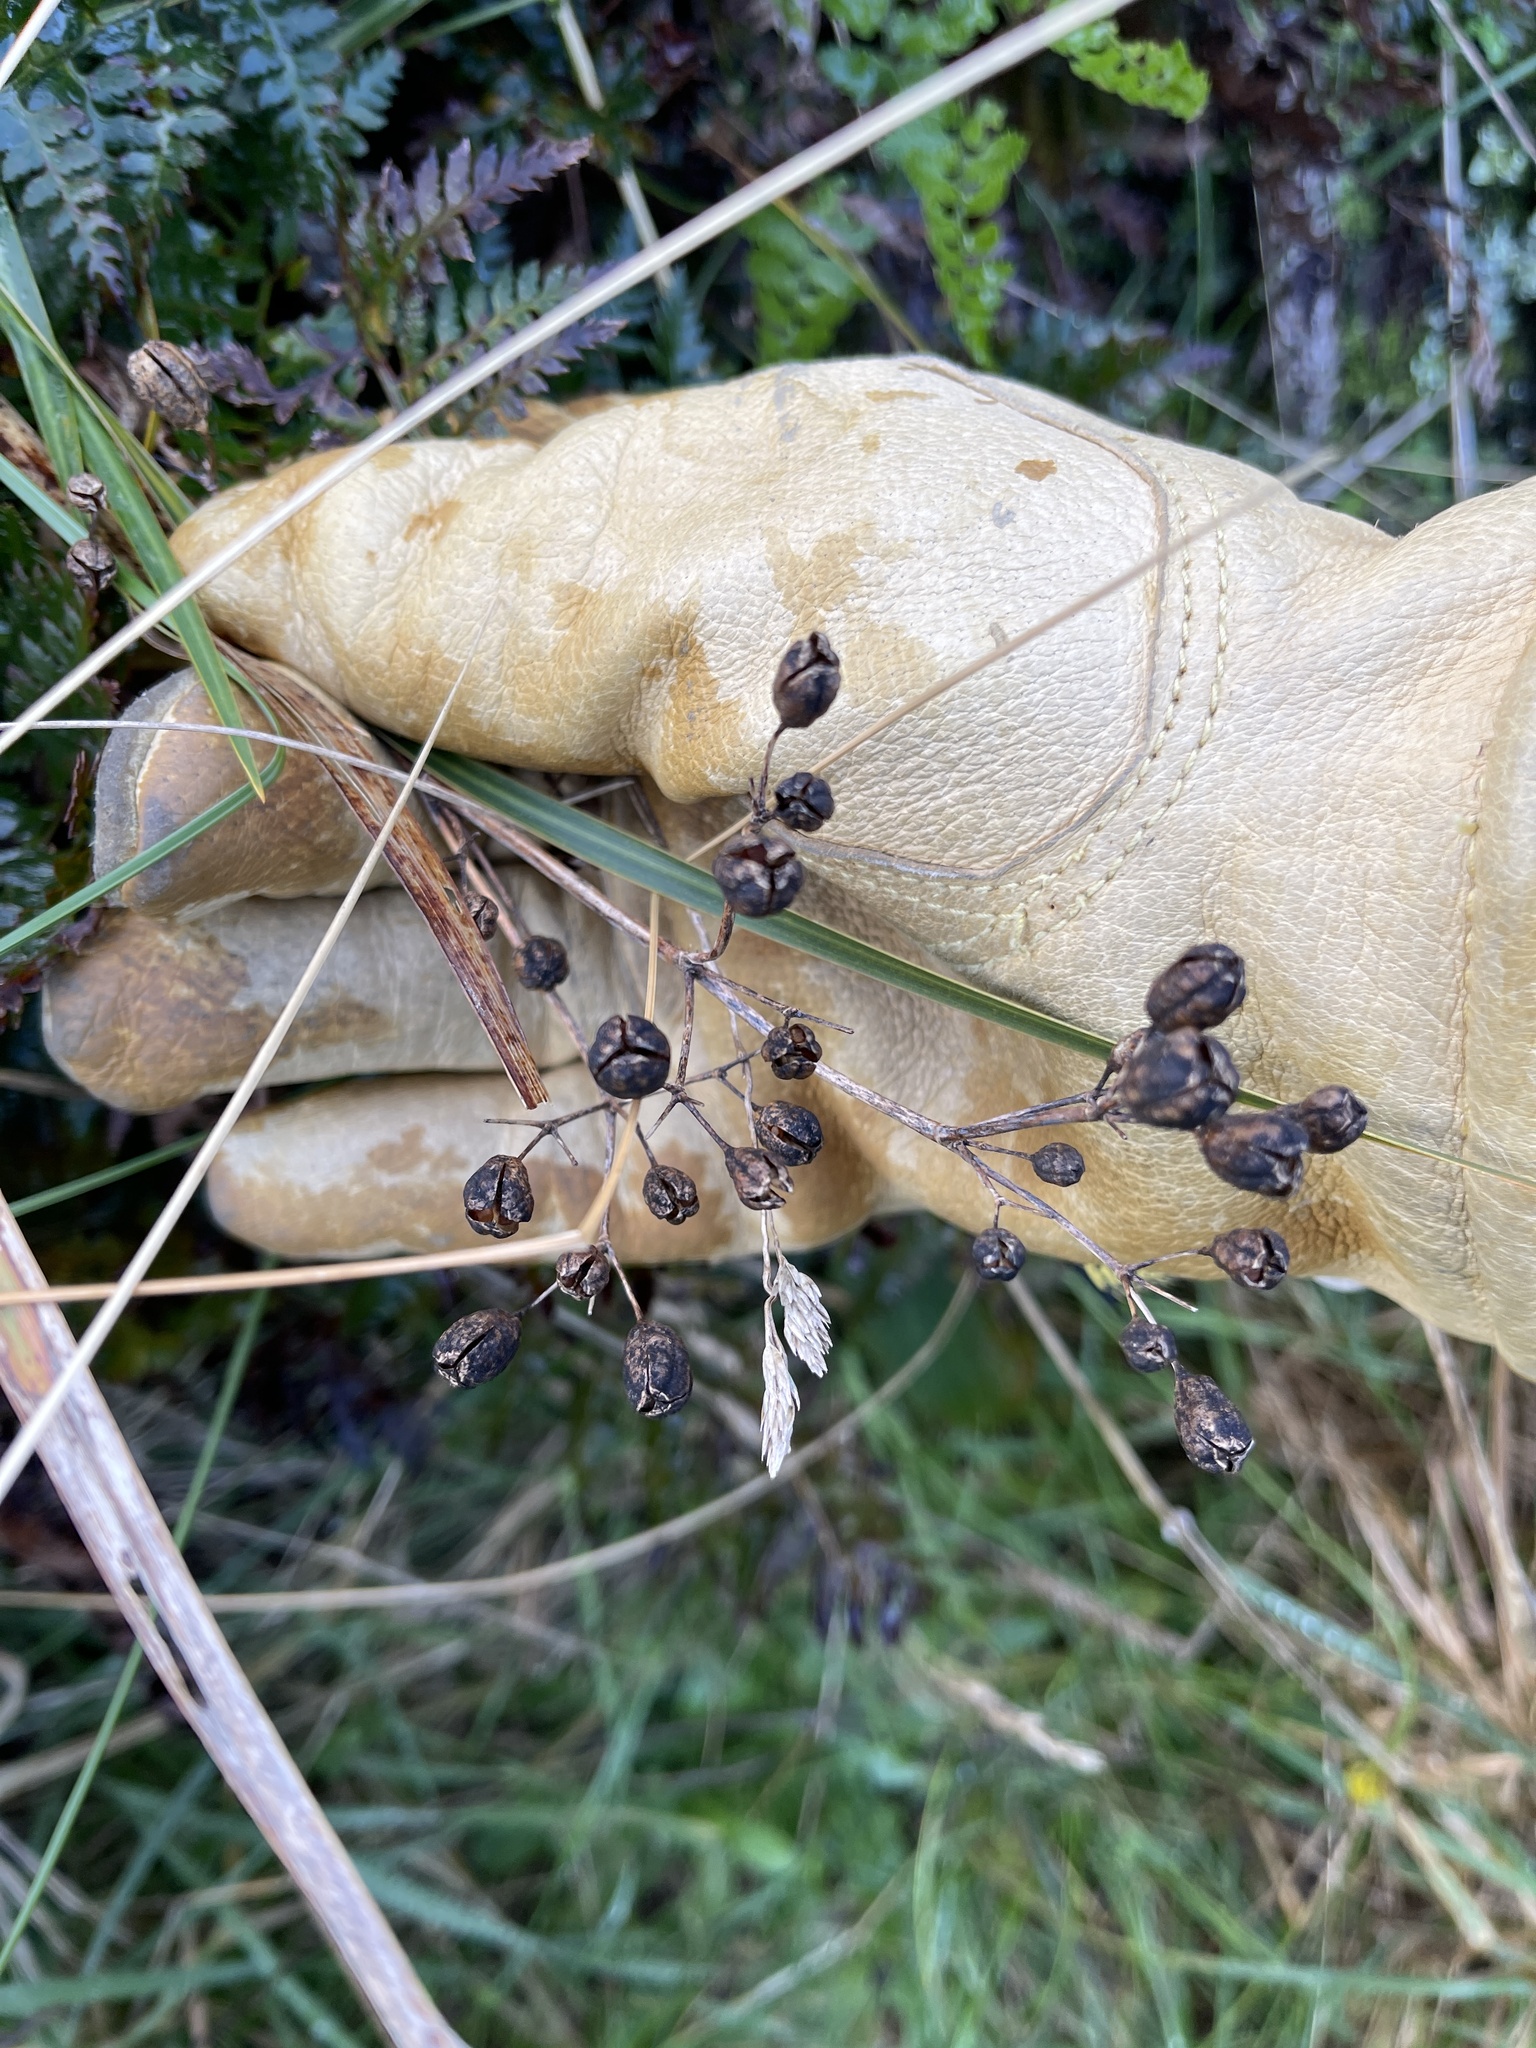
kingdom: Plantae
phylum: Tracheophyta
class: Liliopsida
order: Asparagales
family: Iridaceae
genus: Libertia
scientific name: Libertia ixioides
